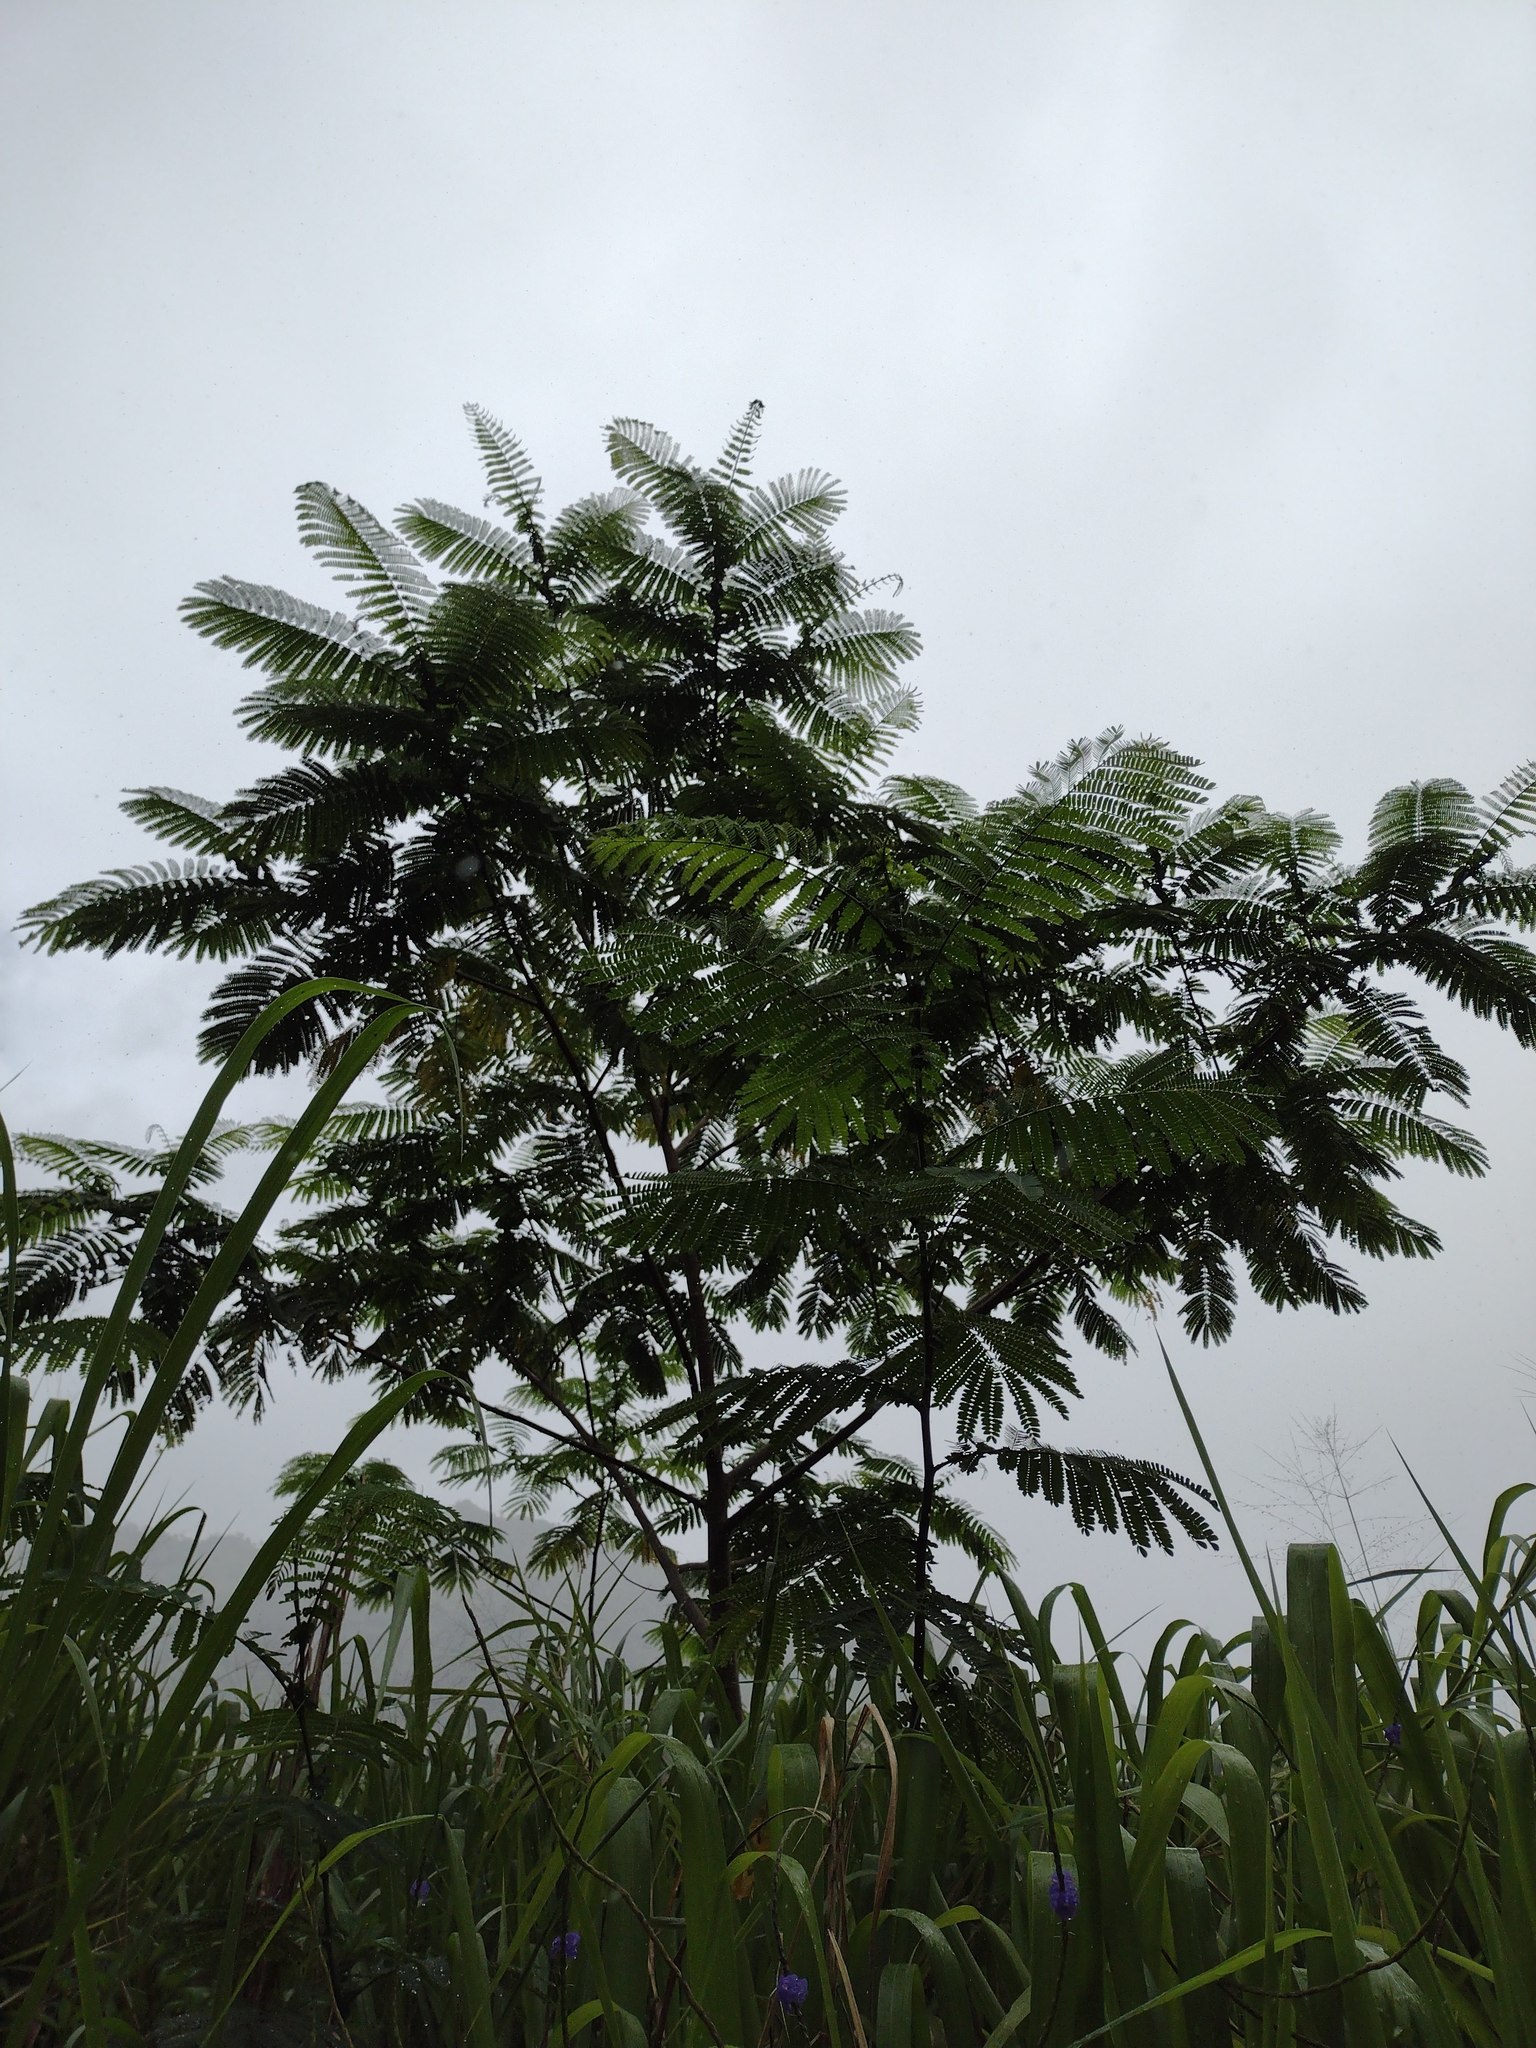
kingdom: Plantae
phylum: Tracheophyta
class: Magnoliopsida
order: Fabales
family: Fabaceae
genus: Falcataria
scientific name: Falcataria falcata
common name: Moluccan albizia
